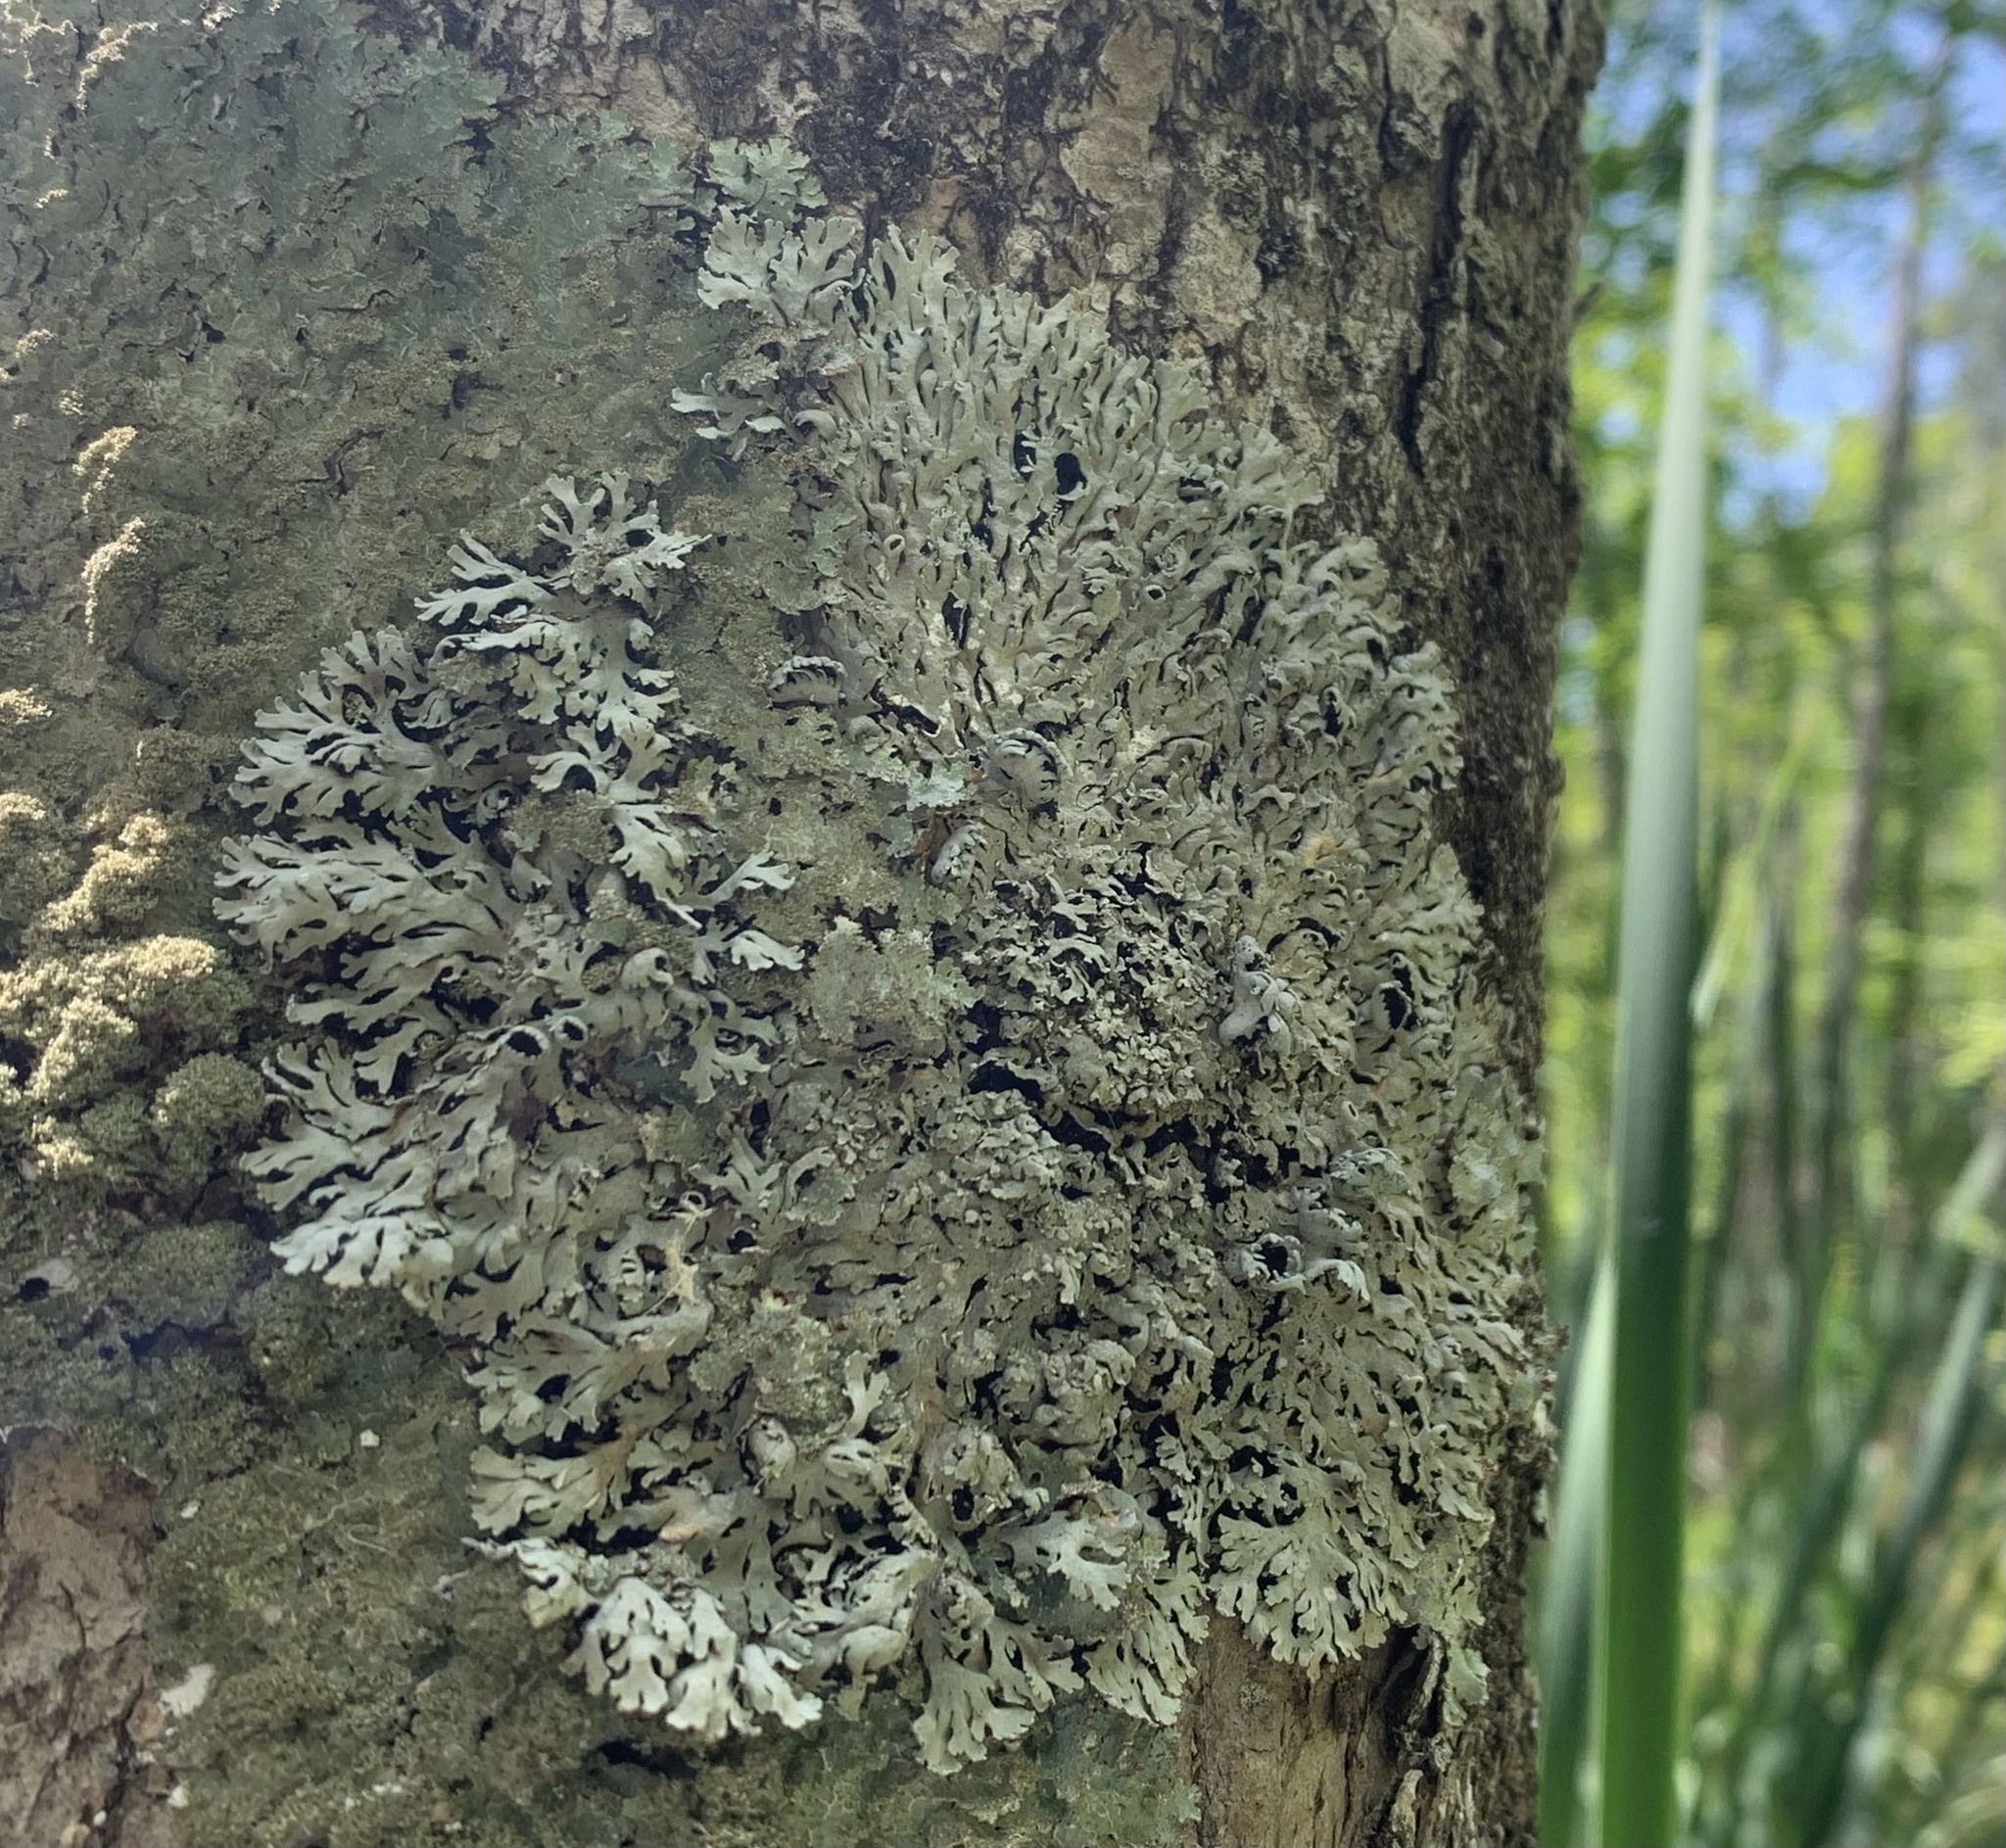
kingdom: Fungi
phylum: Ascomycota
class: Lecanoromycetes
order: Caliciales
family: Physciaceae
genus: Polyblastidium
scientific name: Polyblastidium hypoleucum
